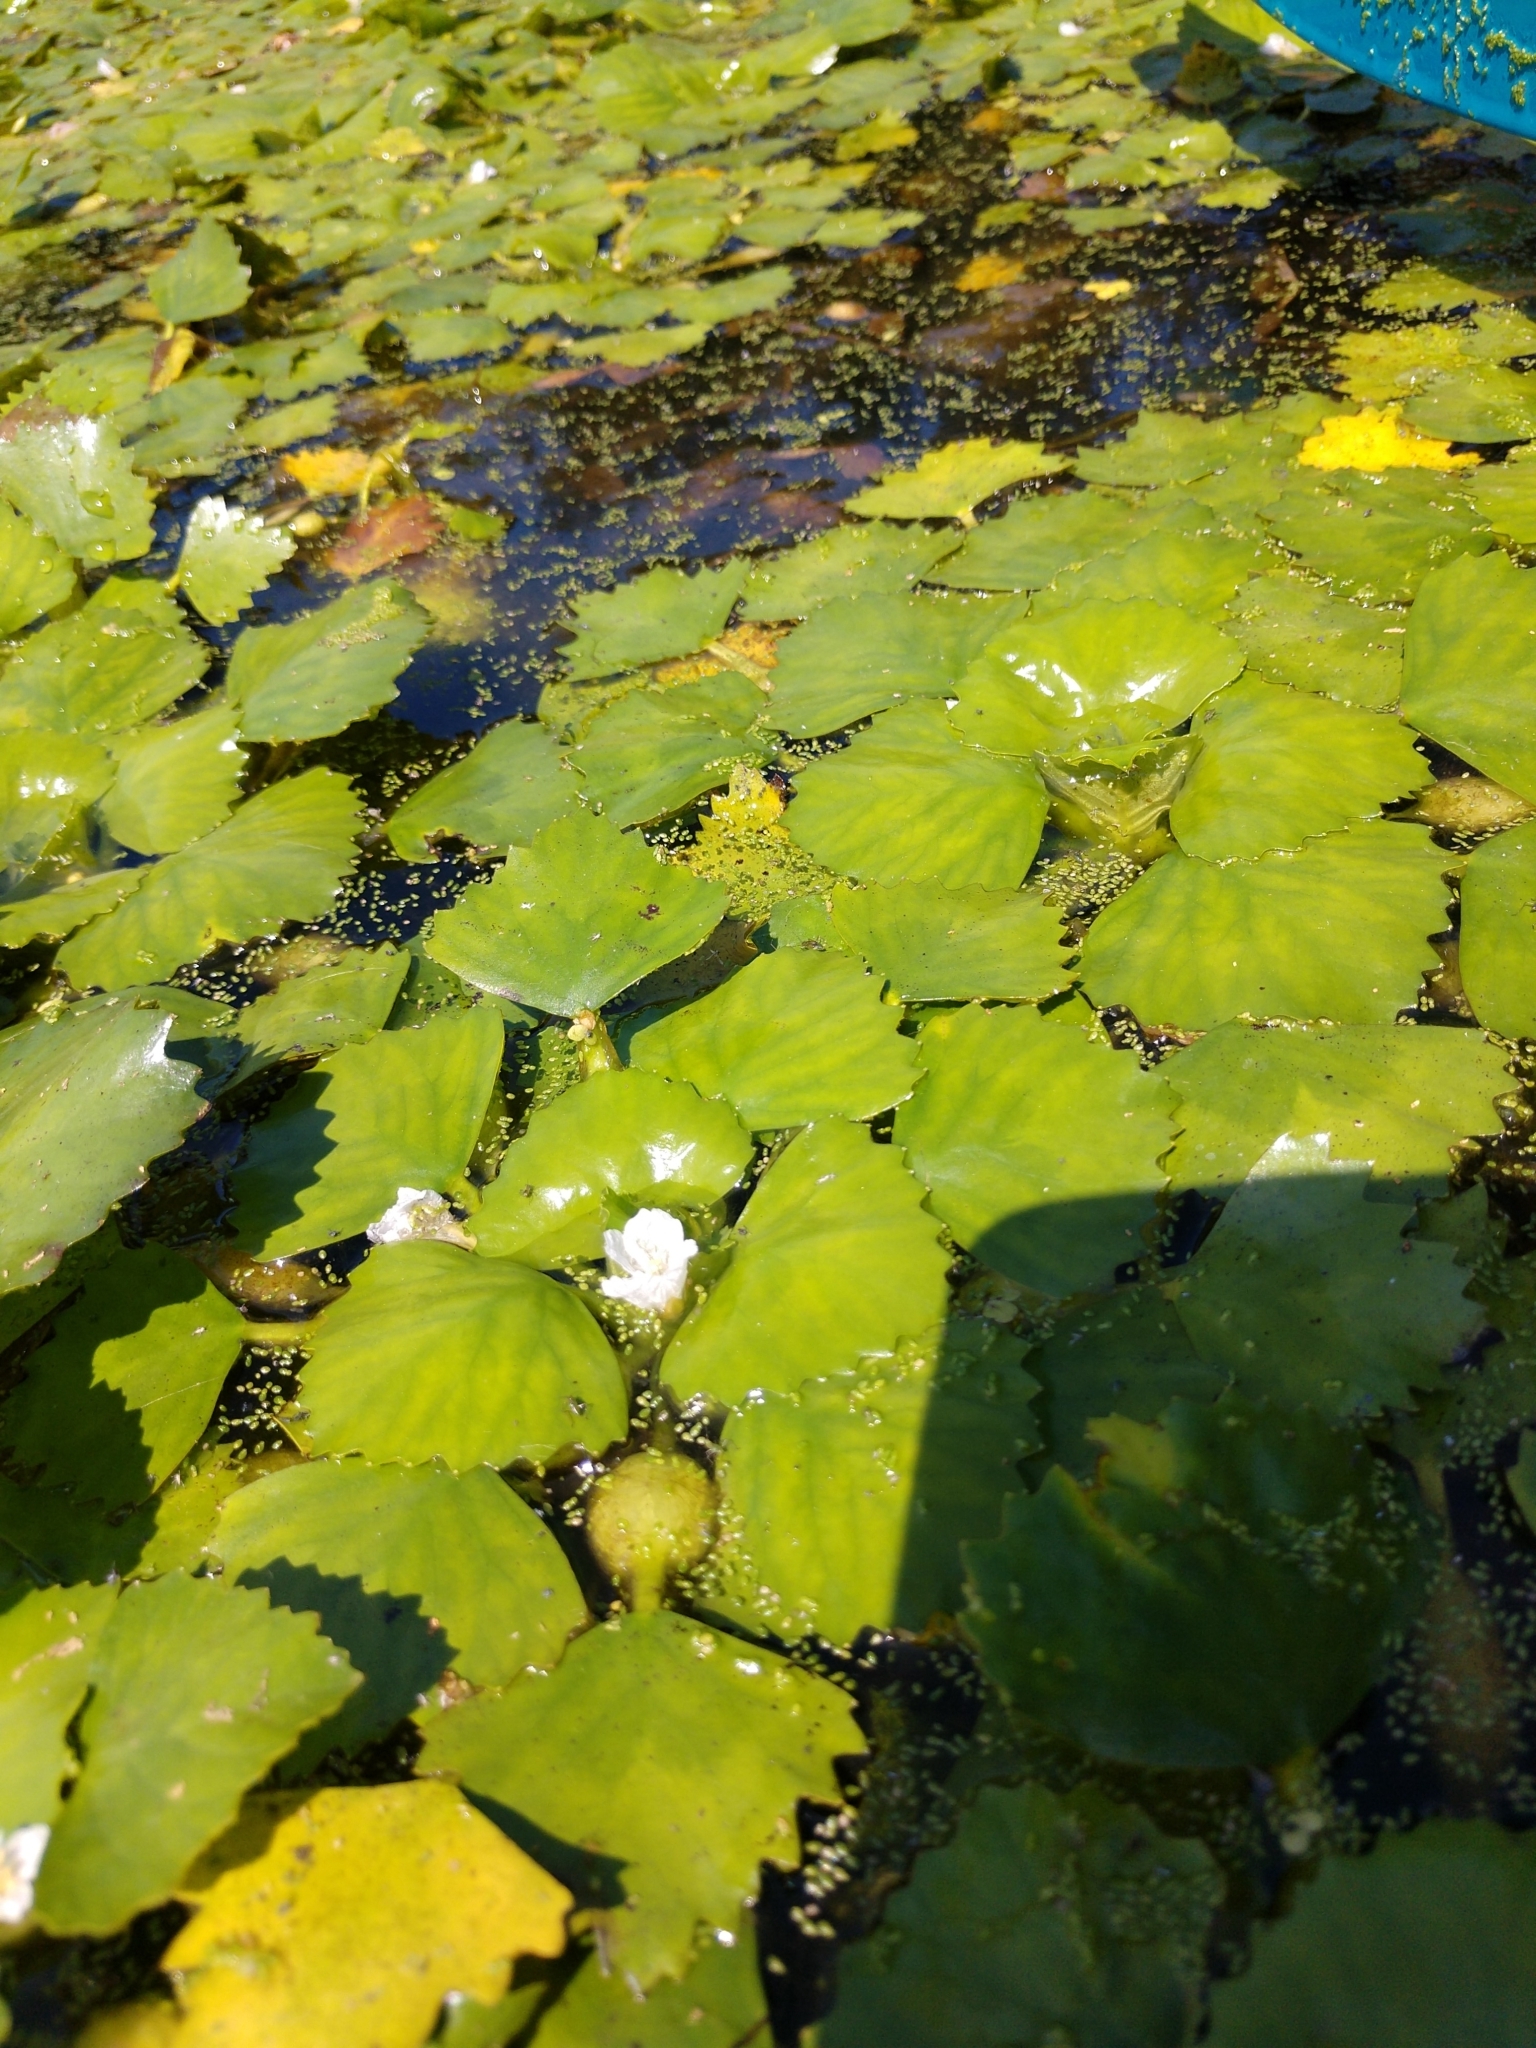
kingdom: Plantae
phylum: Tracheophyta
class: Magnoliopsida
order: Myrtales
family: Lythraceae
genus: Trapa
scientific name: Trapa natans
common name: Water chestnut
